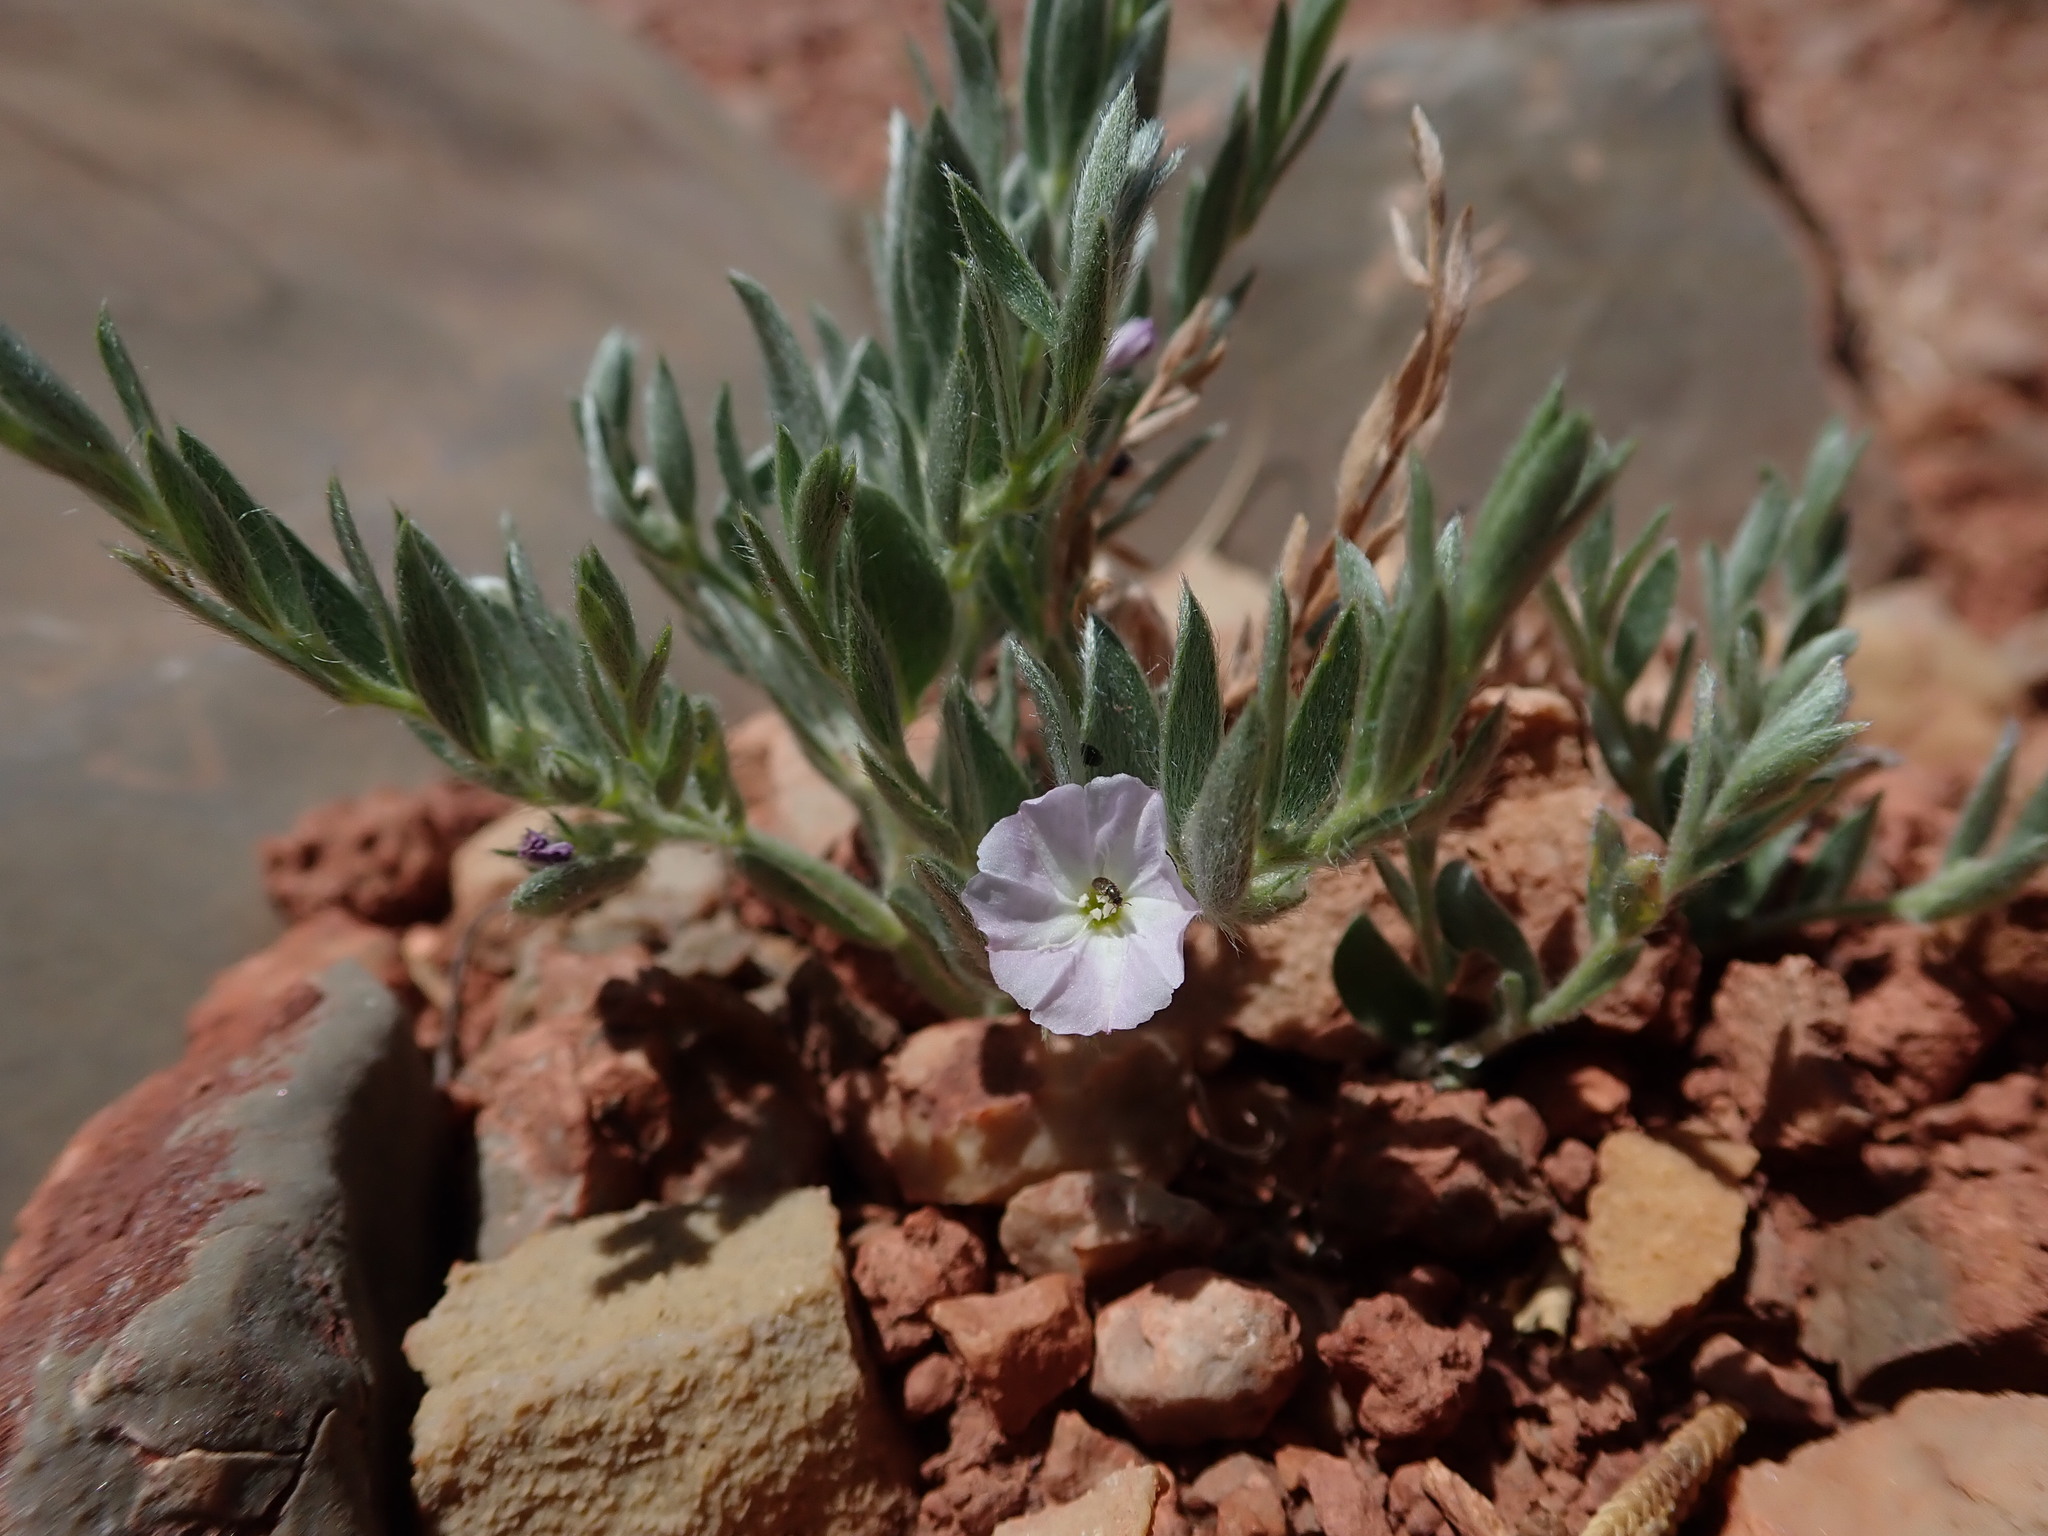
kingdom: Plantae
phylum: Tracheophyta
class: Magnoliopsida
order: Solanales
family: Convolvulaceae
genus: Evolvulus
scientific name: Evolvulus nuttallianus
